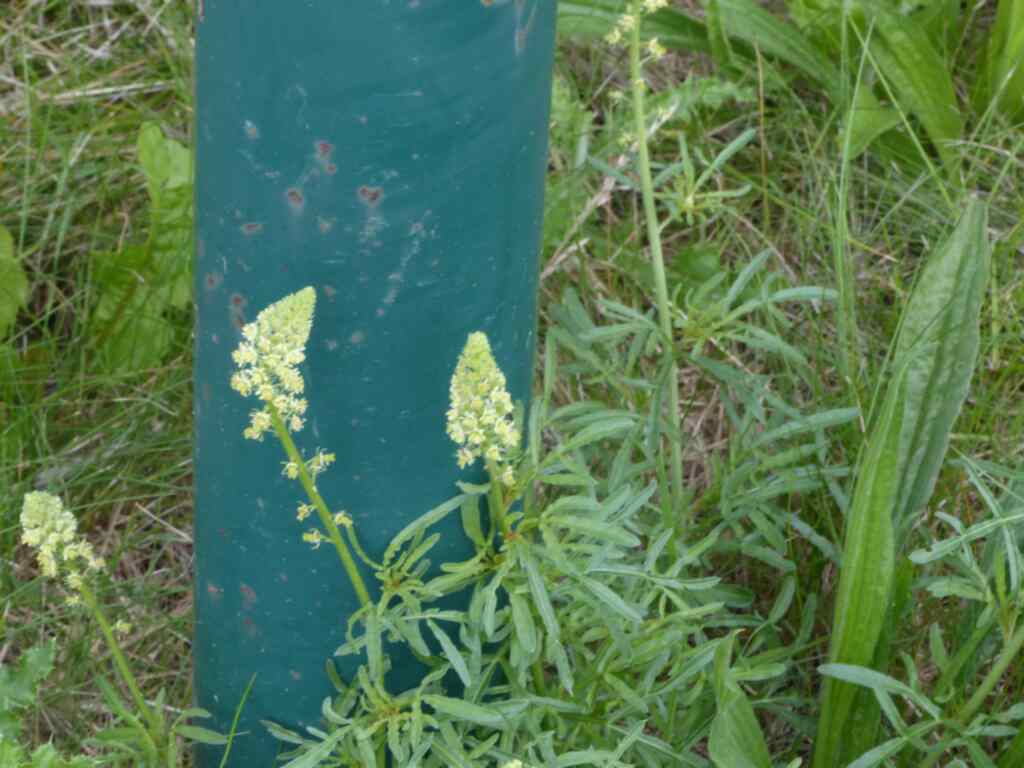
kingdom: Plantae
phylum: Tracheophyta
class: Magnoliopsida
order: Brassicales
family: Resedaceae
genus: Reseda
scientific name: Reseda lutea
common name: Wild mignonette
